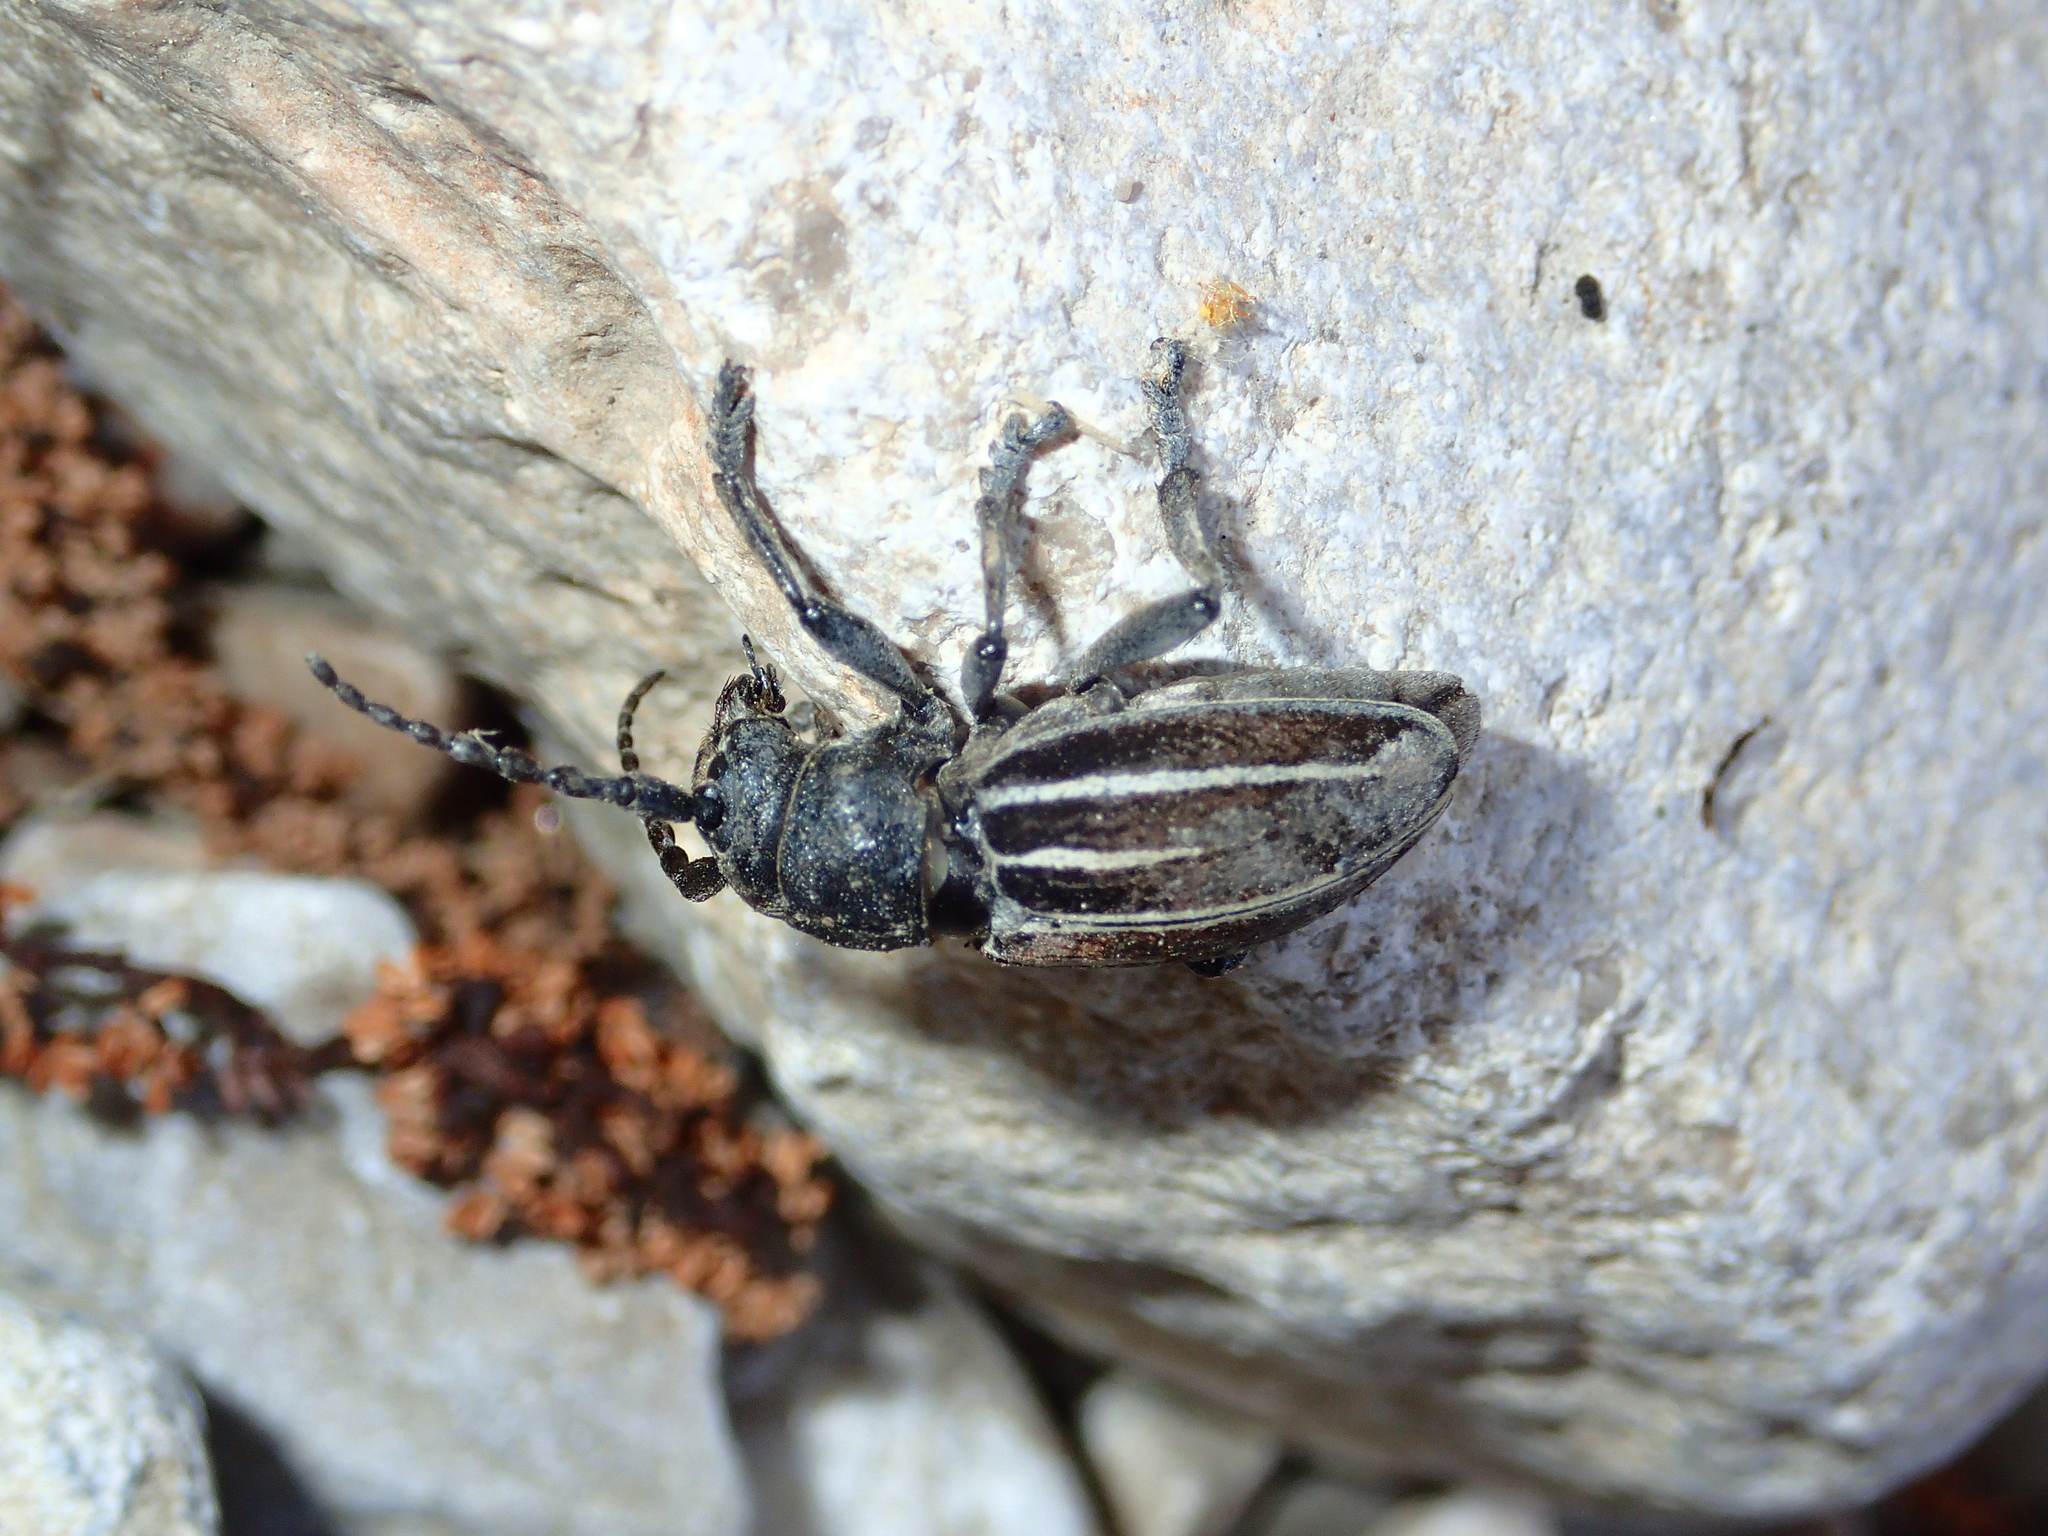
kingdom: Animalia
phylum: Arthropoda
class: Insecta
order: Coleoptera
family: Cerambycidae
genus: Iberodorcadion
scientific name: Iberodorcadion fuliginator
